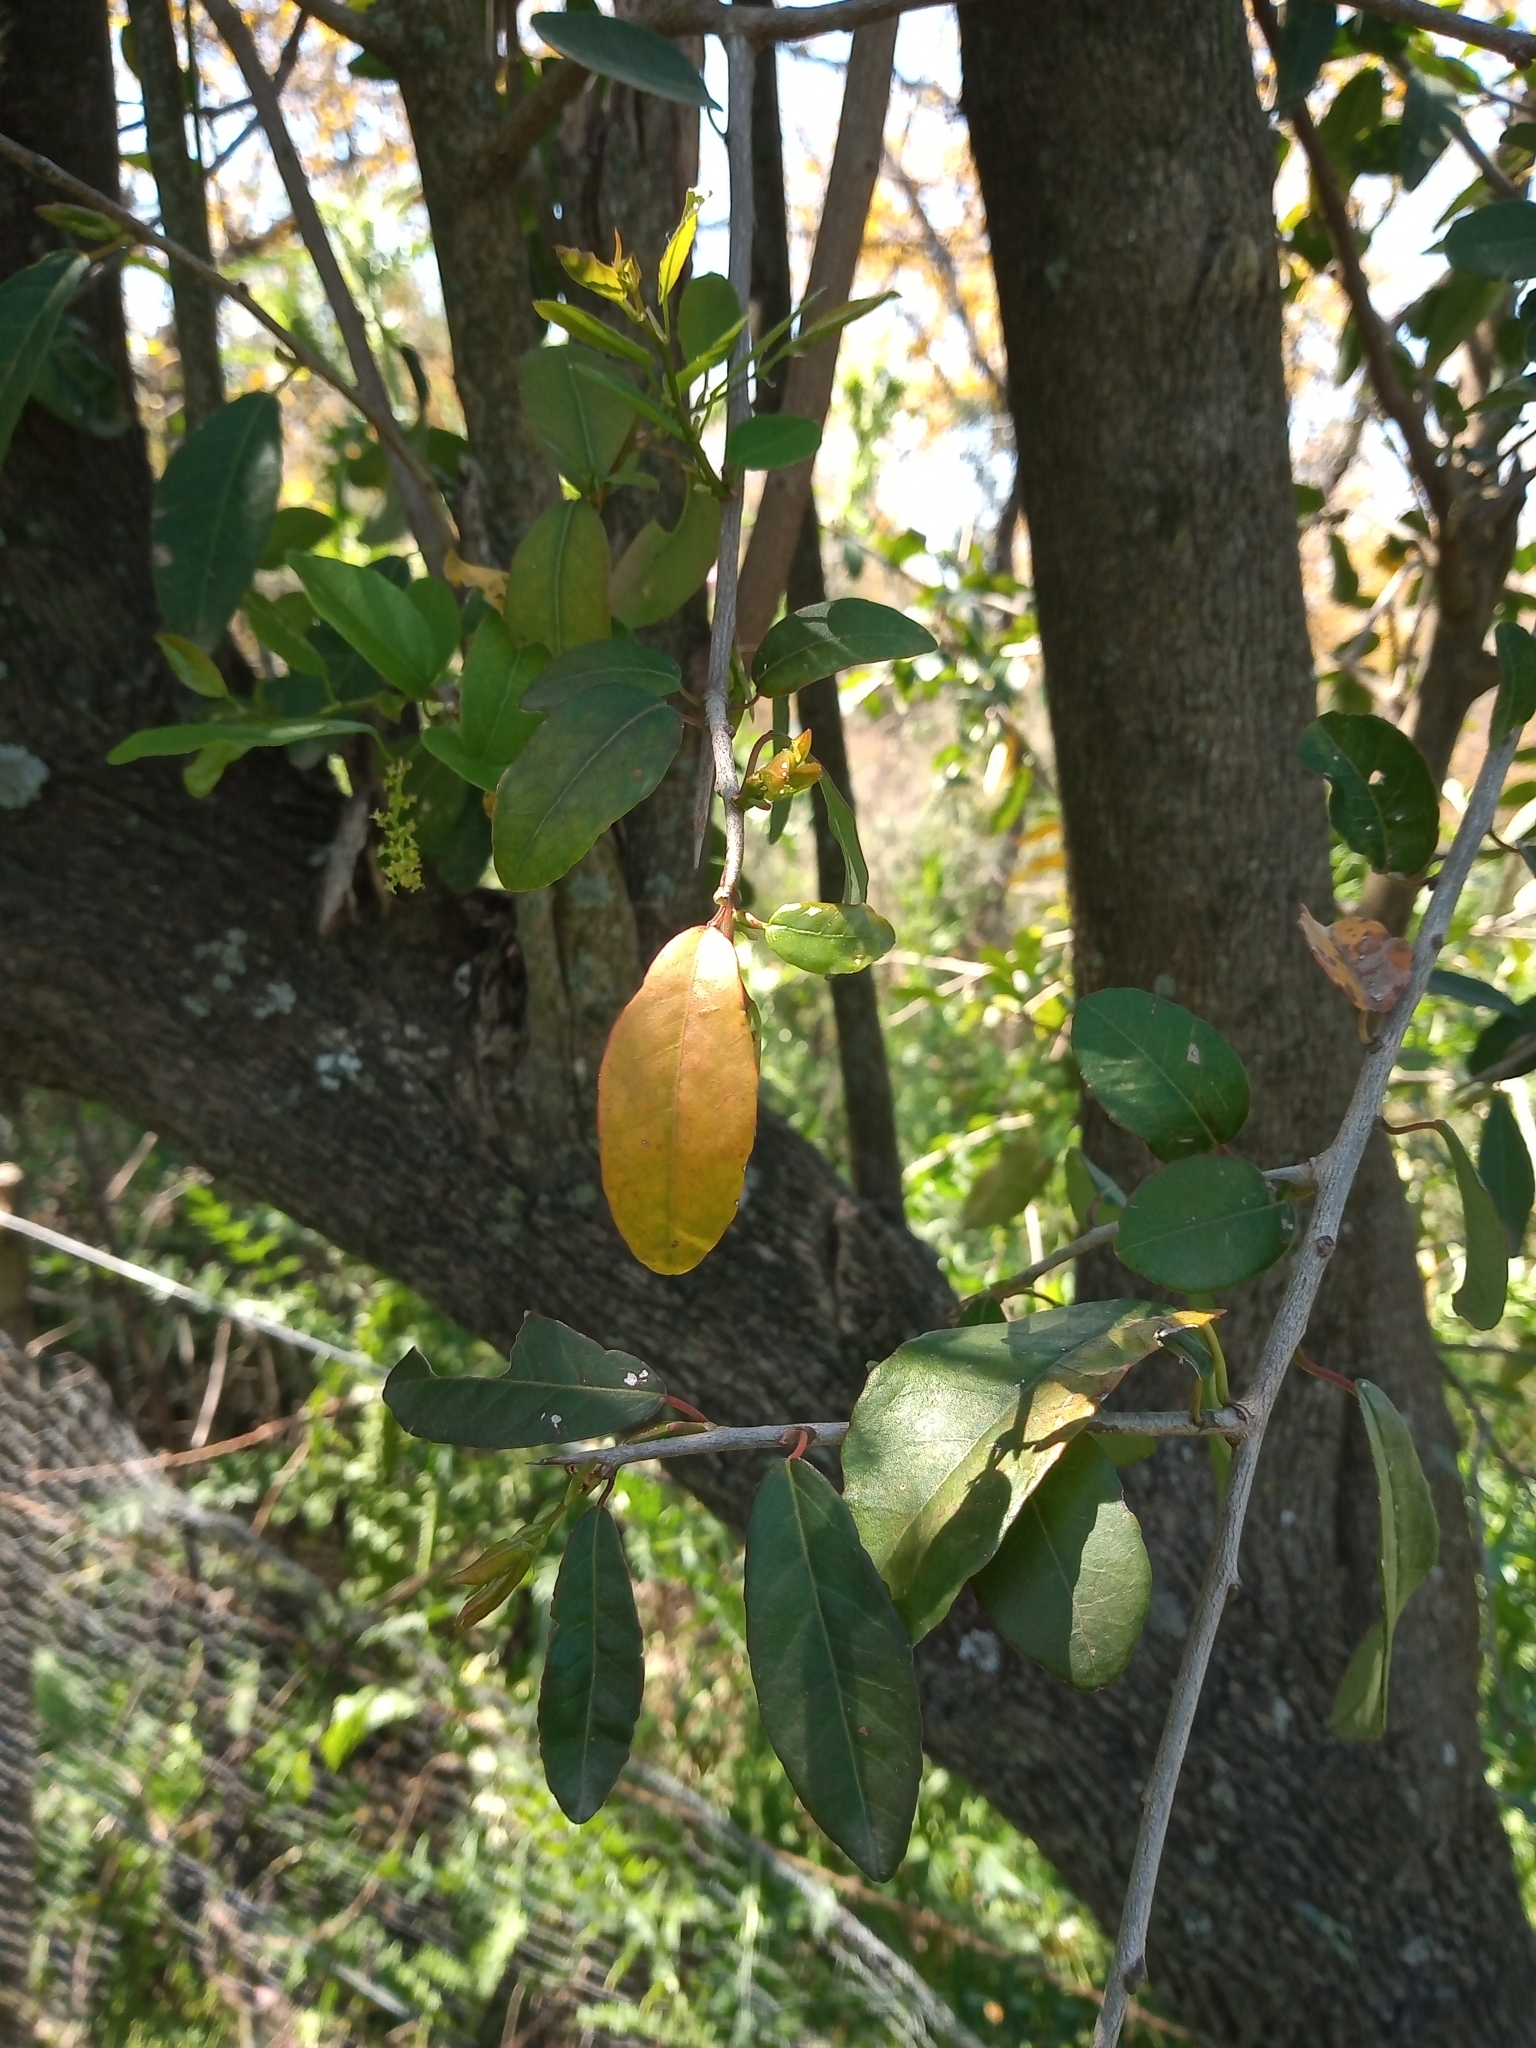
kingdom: Plantae
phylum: Tracheophyta
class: Magnoliopsida
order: Malpighiales
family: Euphorbiaceae
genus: Sebastiania
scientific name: Sebastiania klotzschiana
